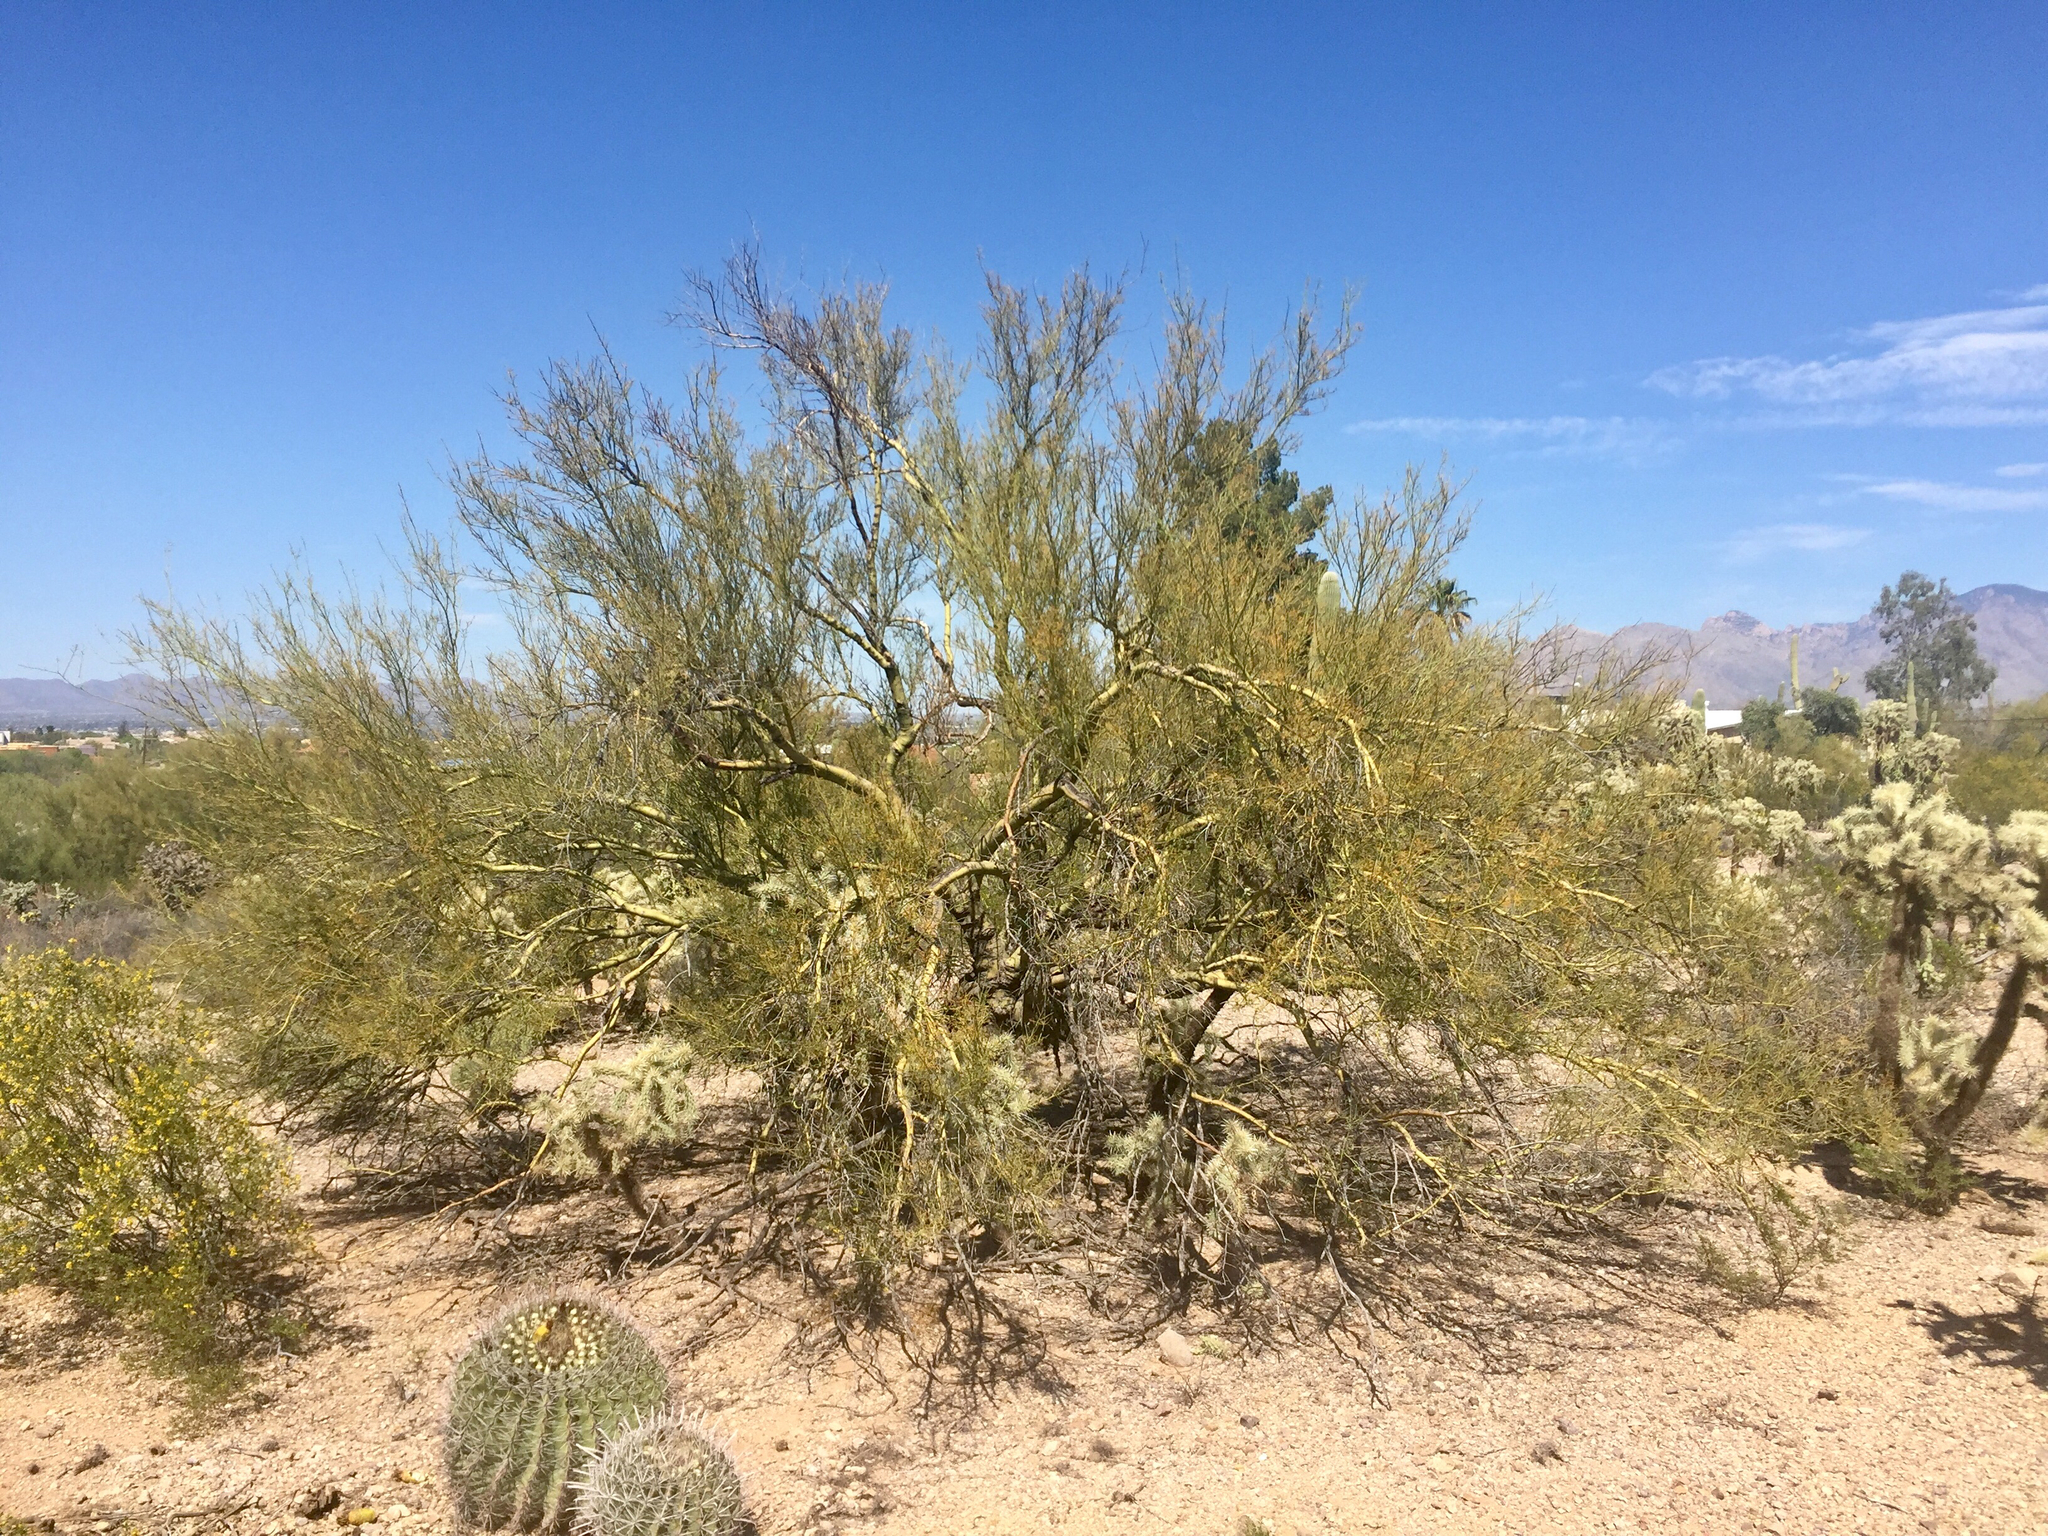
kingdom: Plantae
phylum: Tracheophyta
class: Magnoliopsida
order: Fabales
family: Fabaceae
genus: Parkinsonia
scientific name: Parkinsonia microphylla
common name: Yellow paloverde
